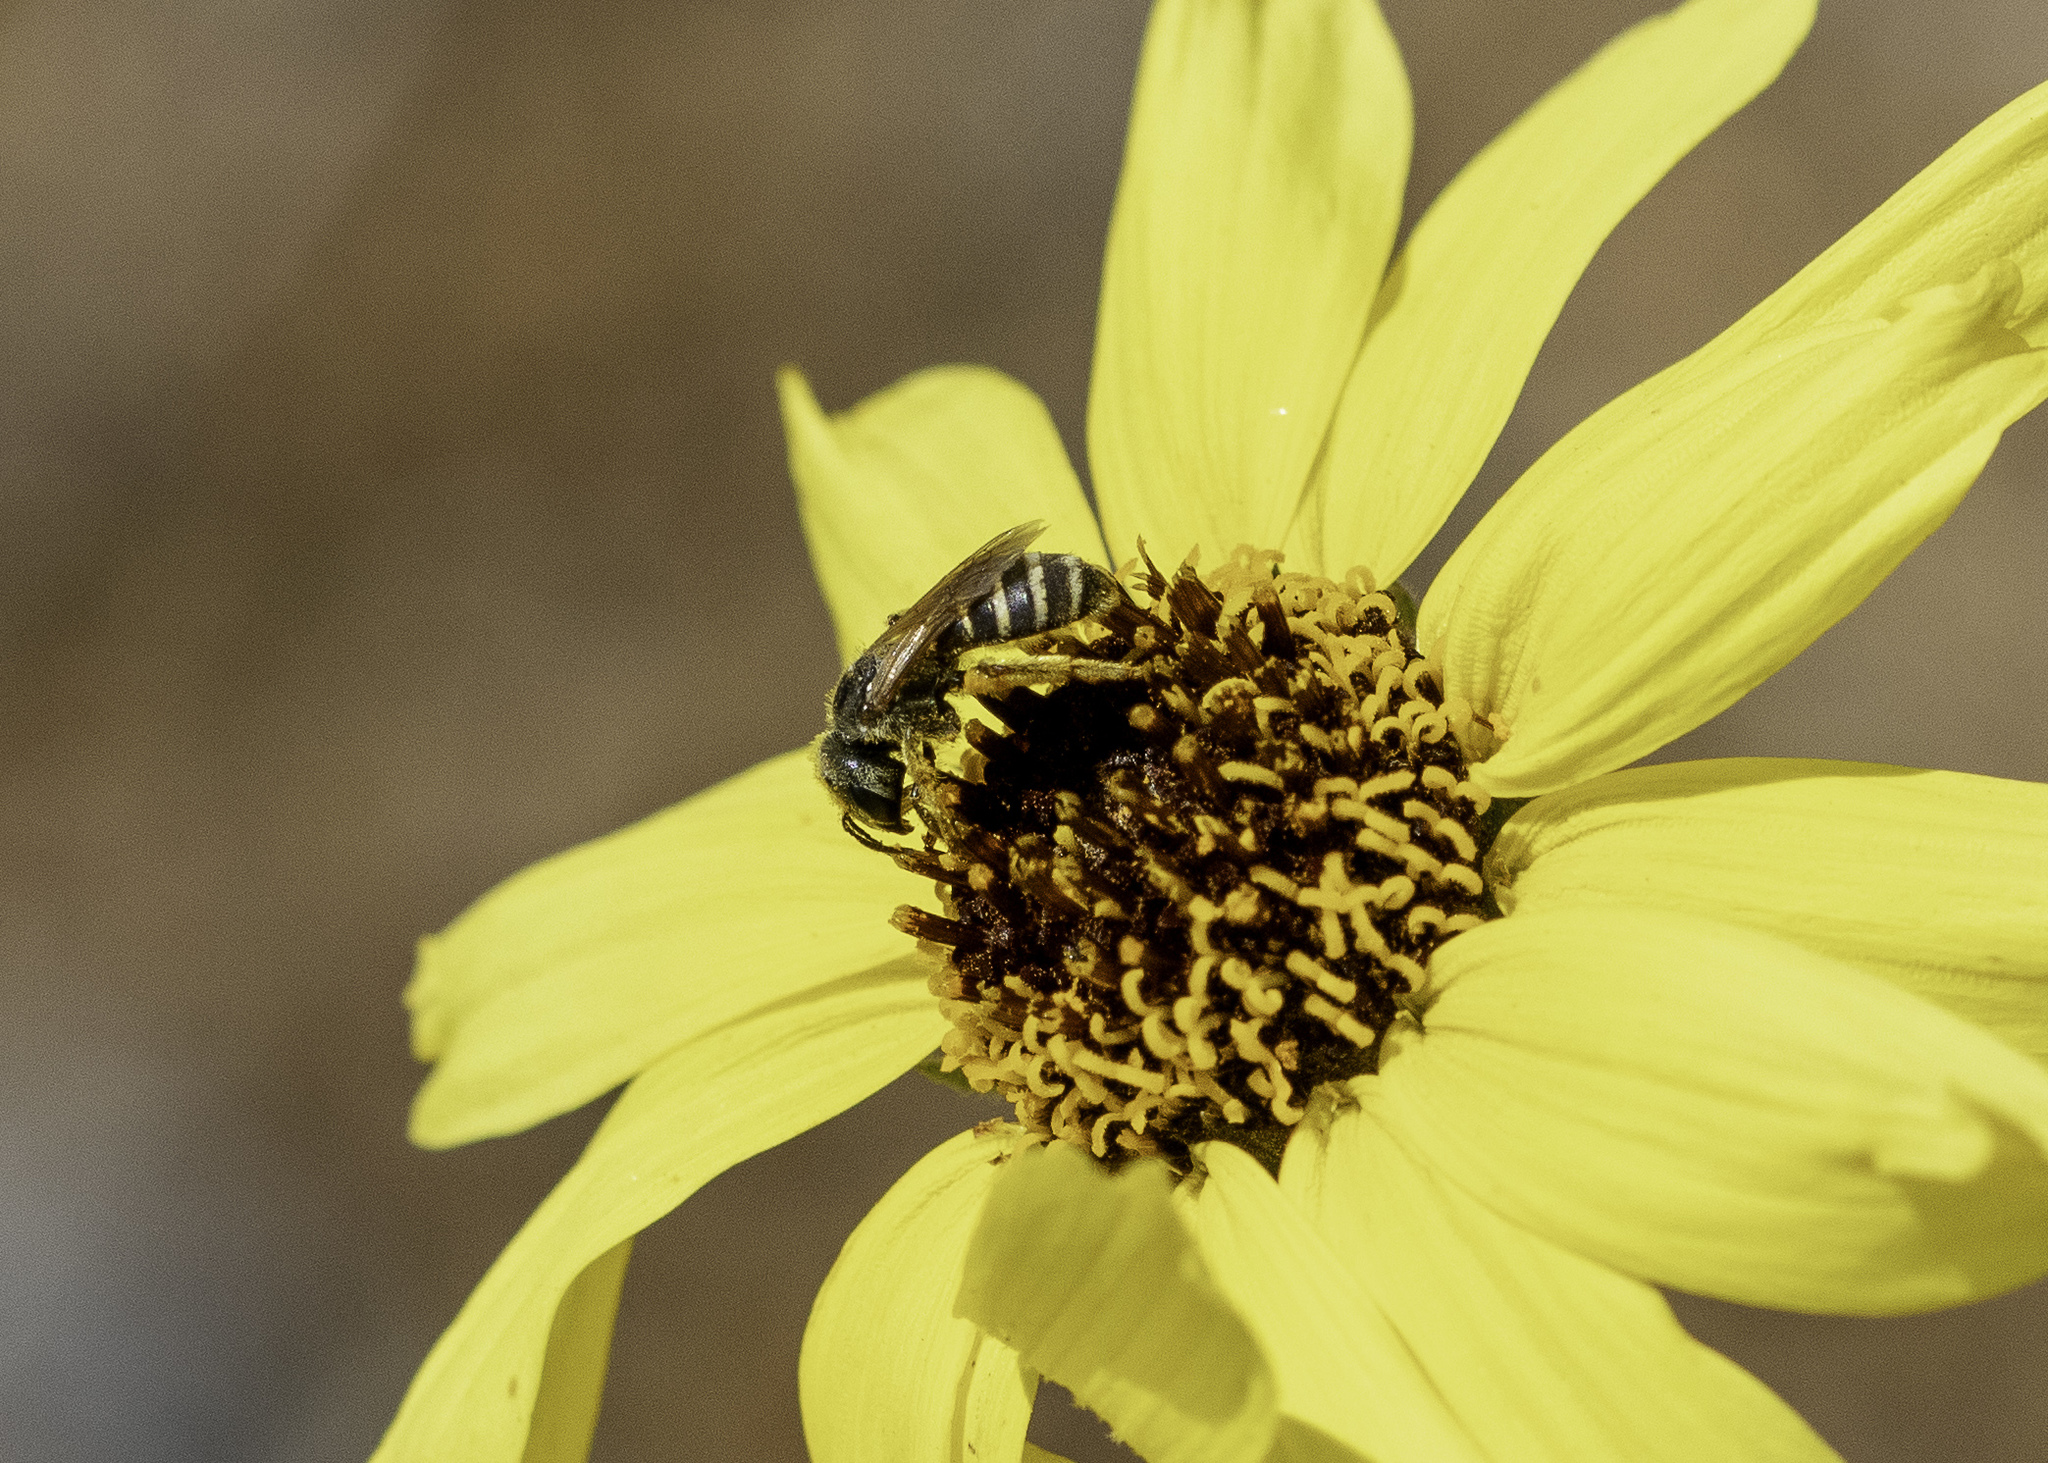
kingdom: Animalia
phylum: Arthropoda
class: Insecta
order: Hymenoptera
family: Halictidae
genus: Halictus
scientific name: Halictus ligatus
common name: Ligated furrow bee
